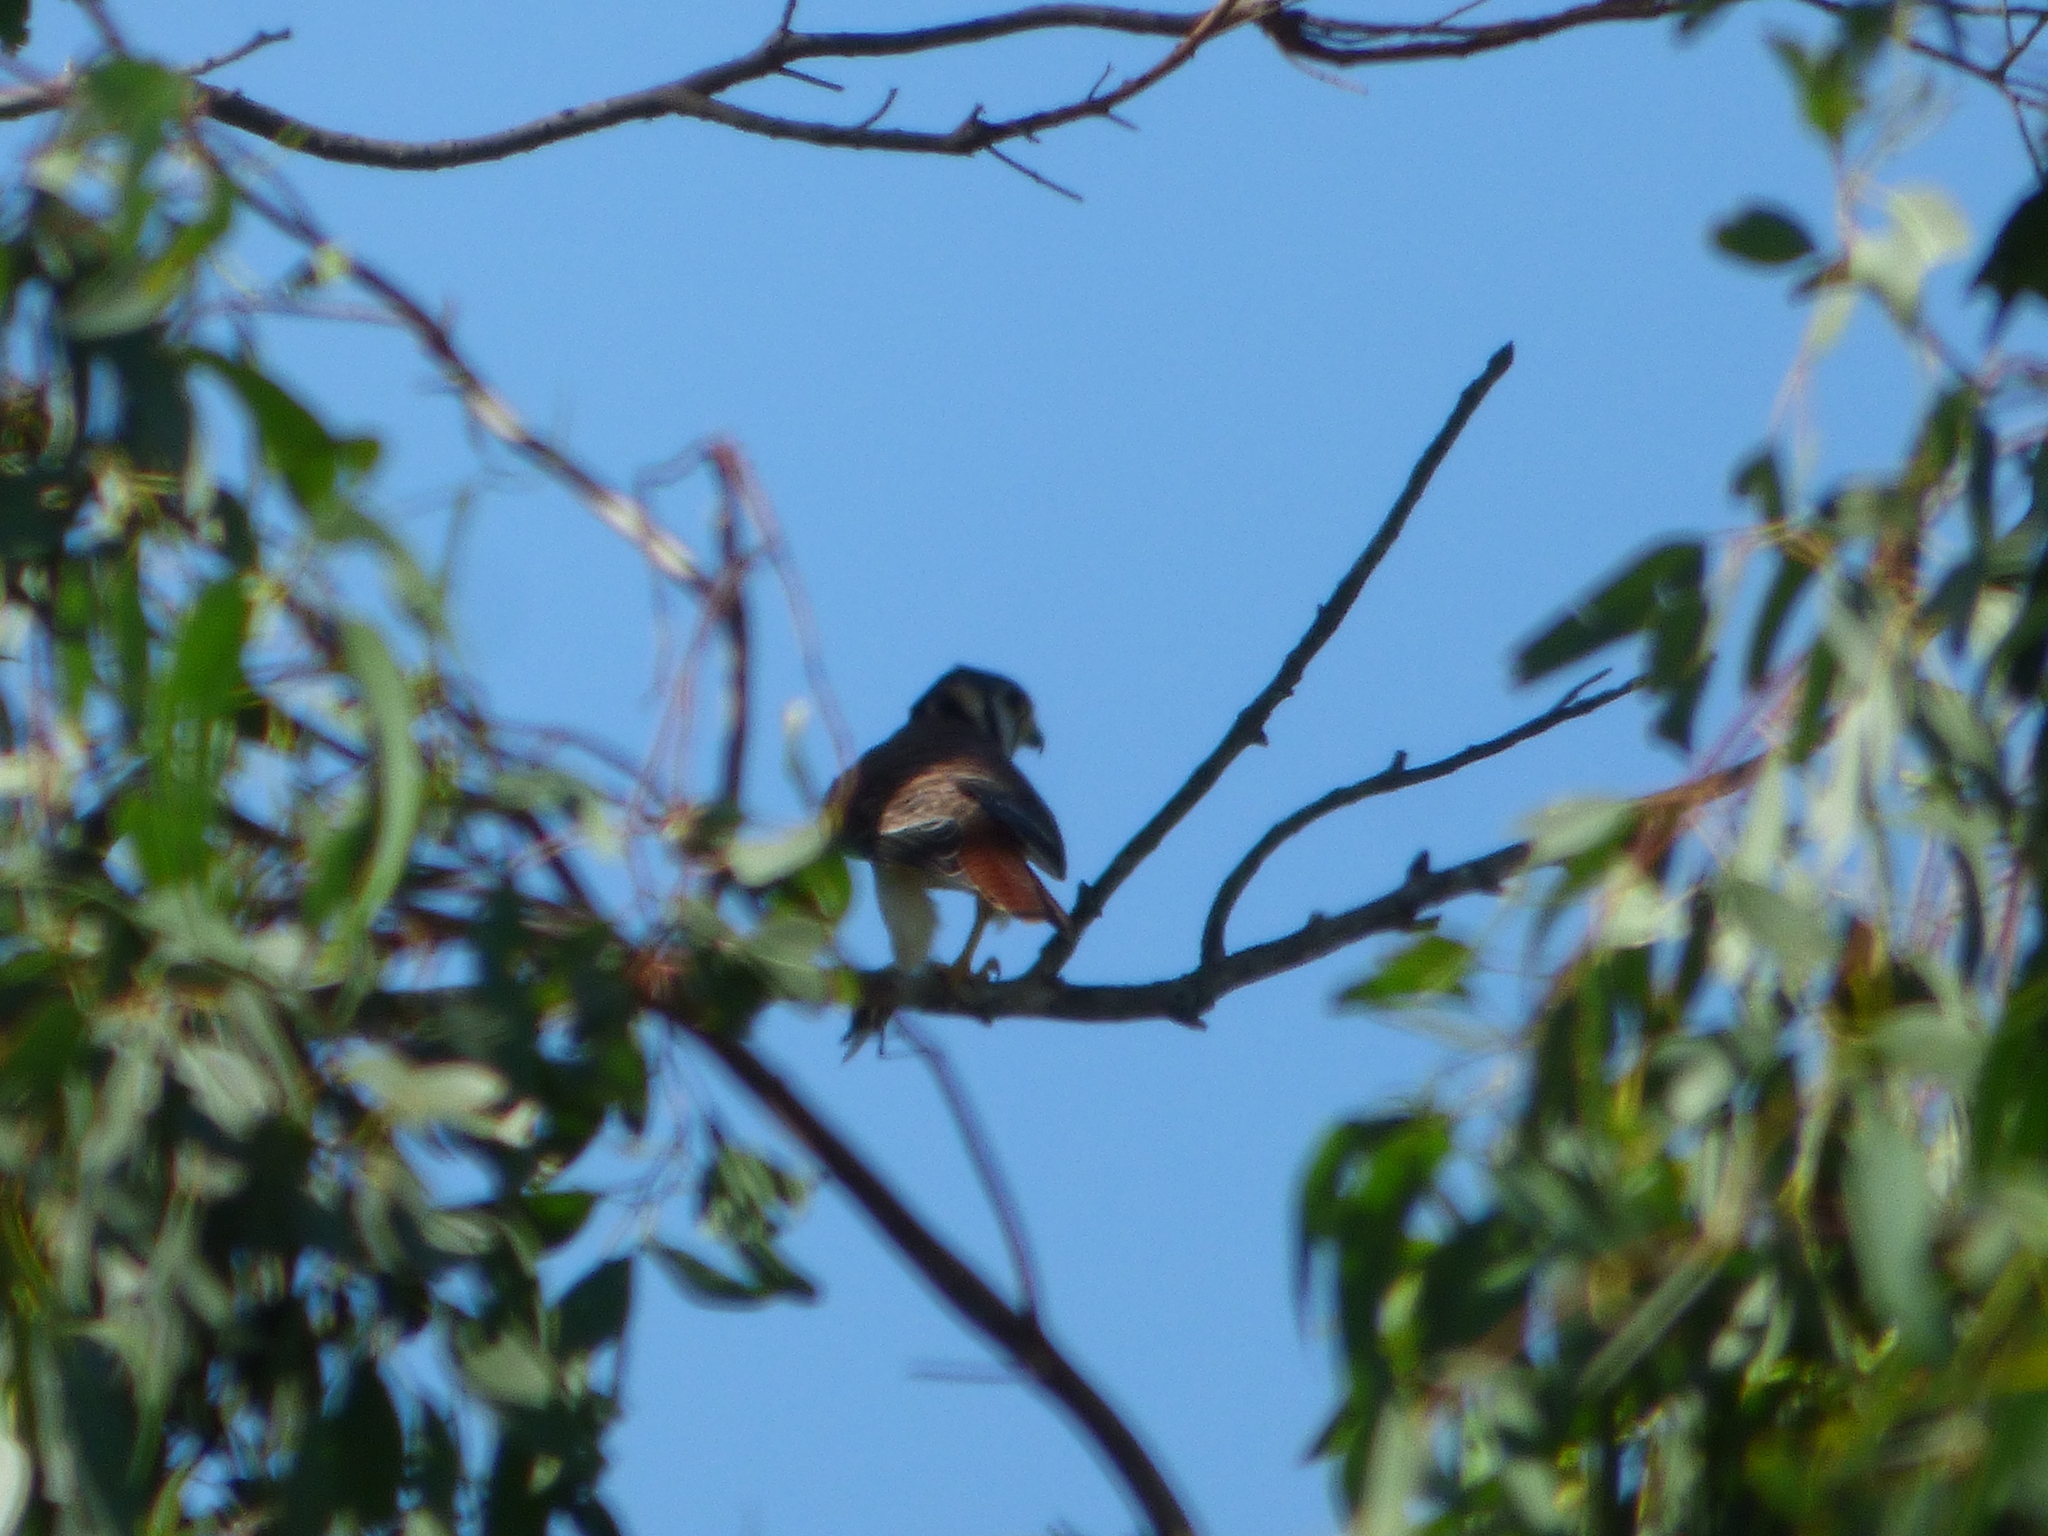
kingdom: Animalia
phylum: Chordata
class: Aves
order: Falconiformes
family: Falconidae
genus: Falco
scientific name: Falco sparverius
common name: American kestrel
